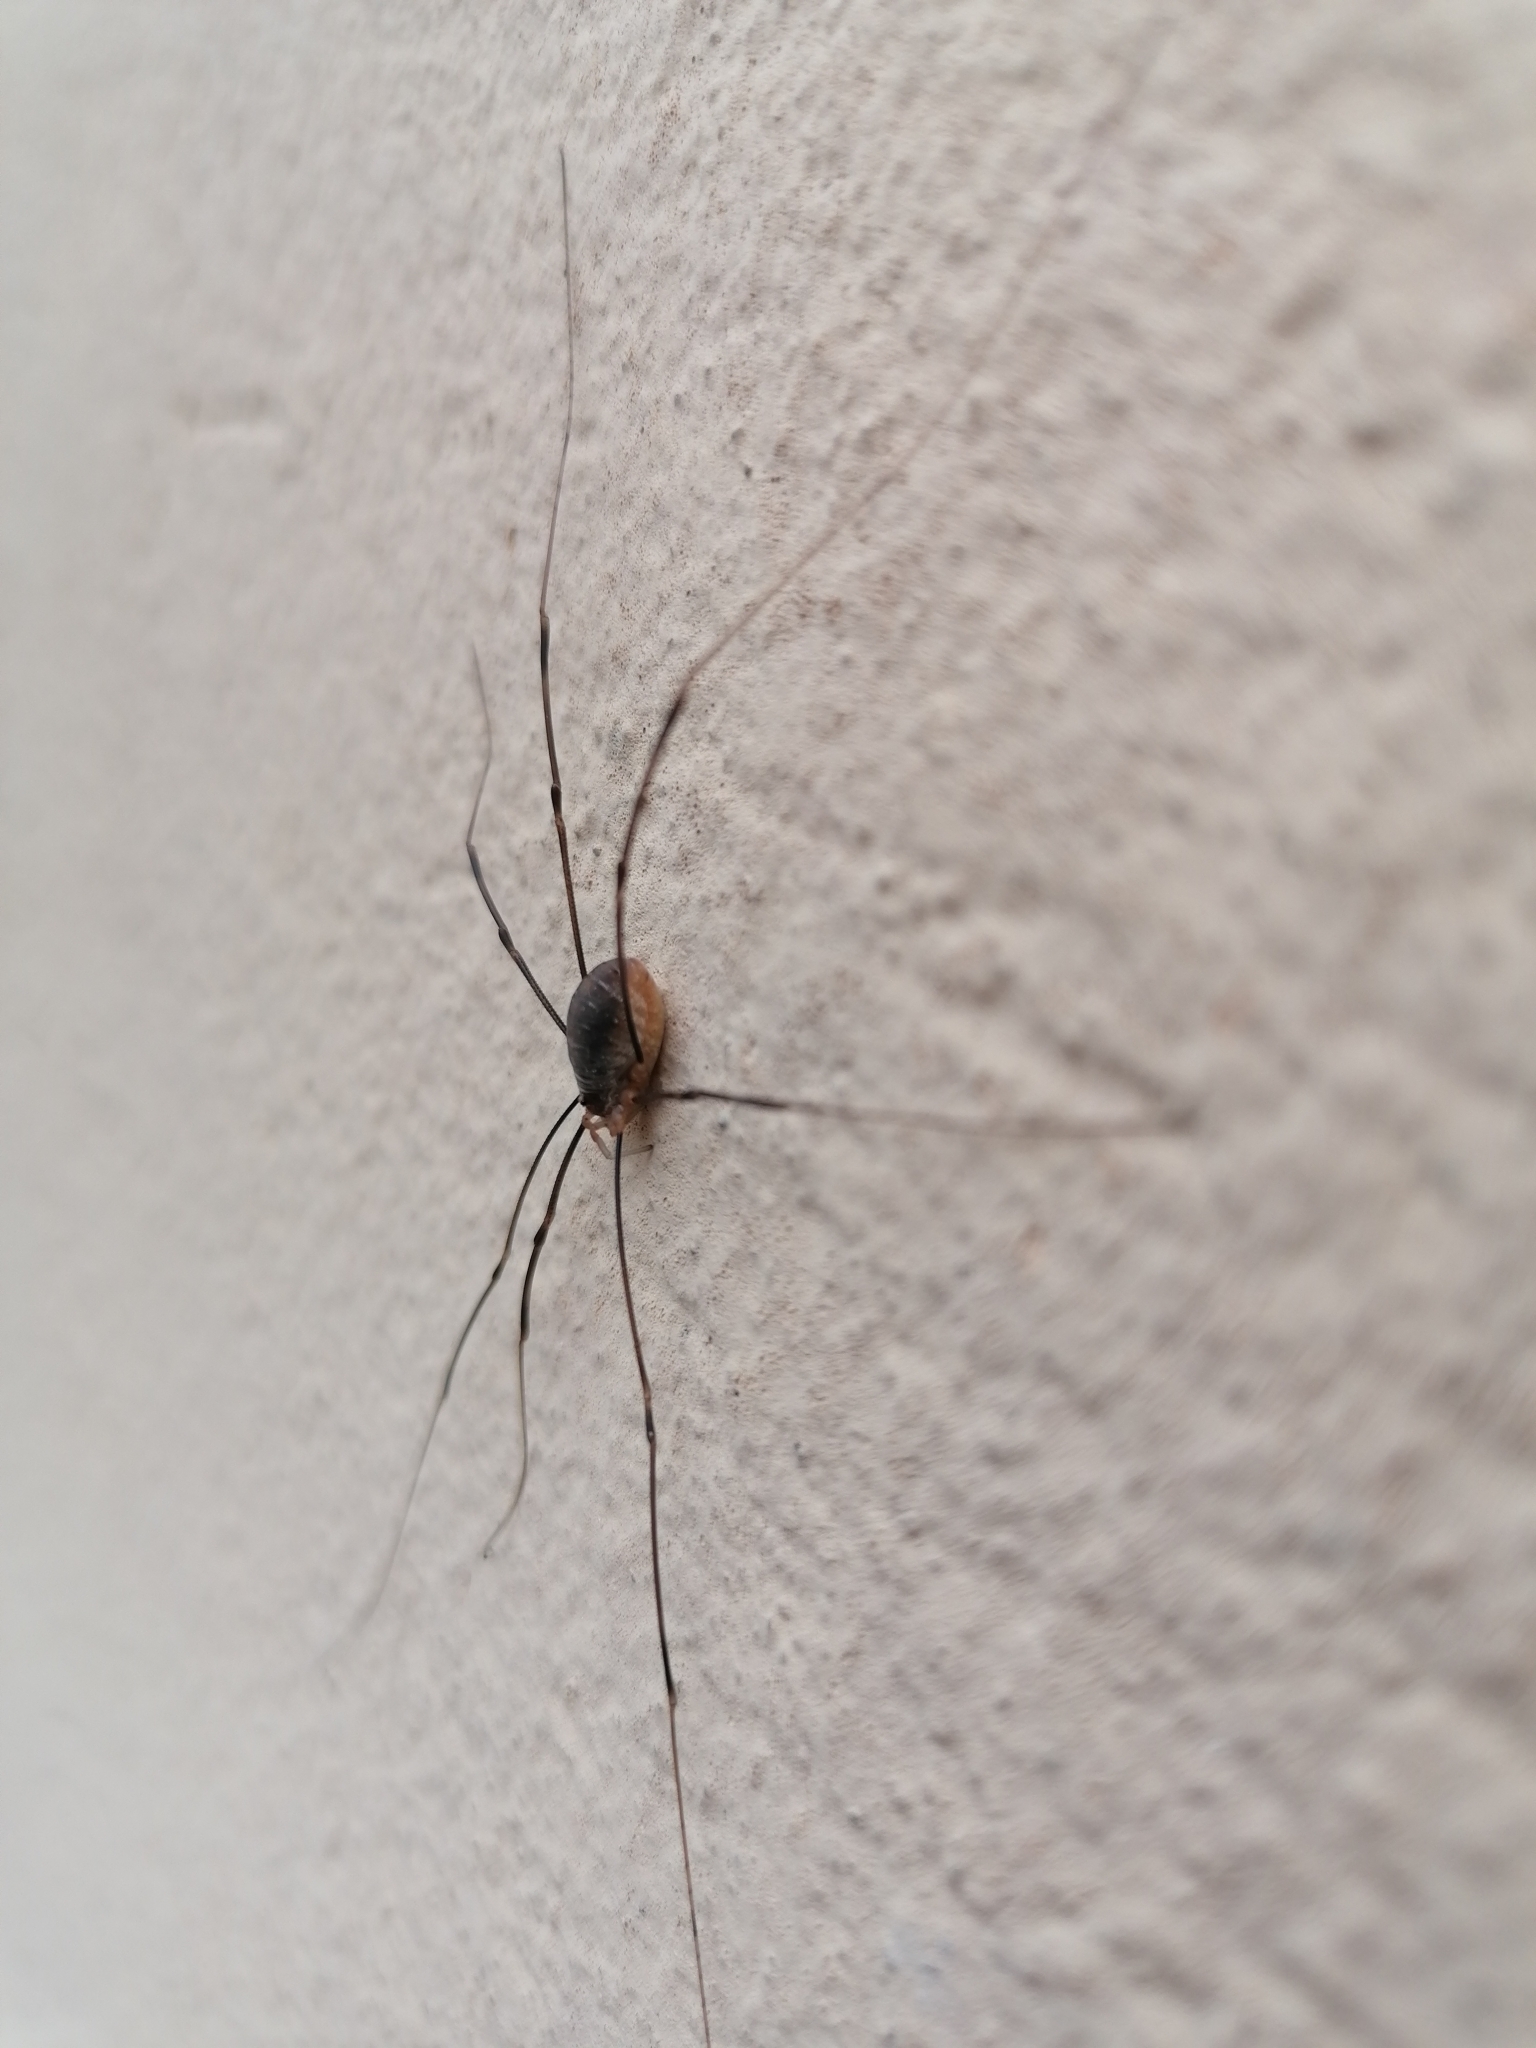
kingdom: Animalia
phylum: Arthropoda
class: Arachnida
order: Opiliones
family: Phalangiidae
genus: Opilio
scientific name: Opilio canestrinii
